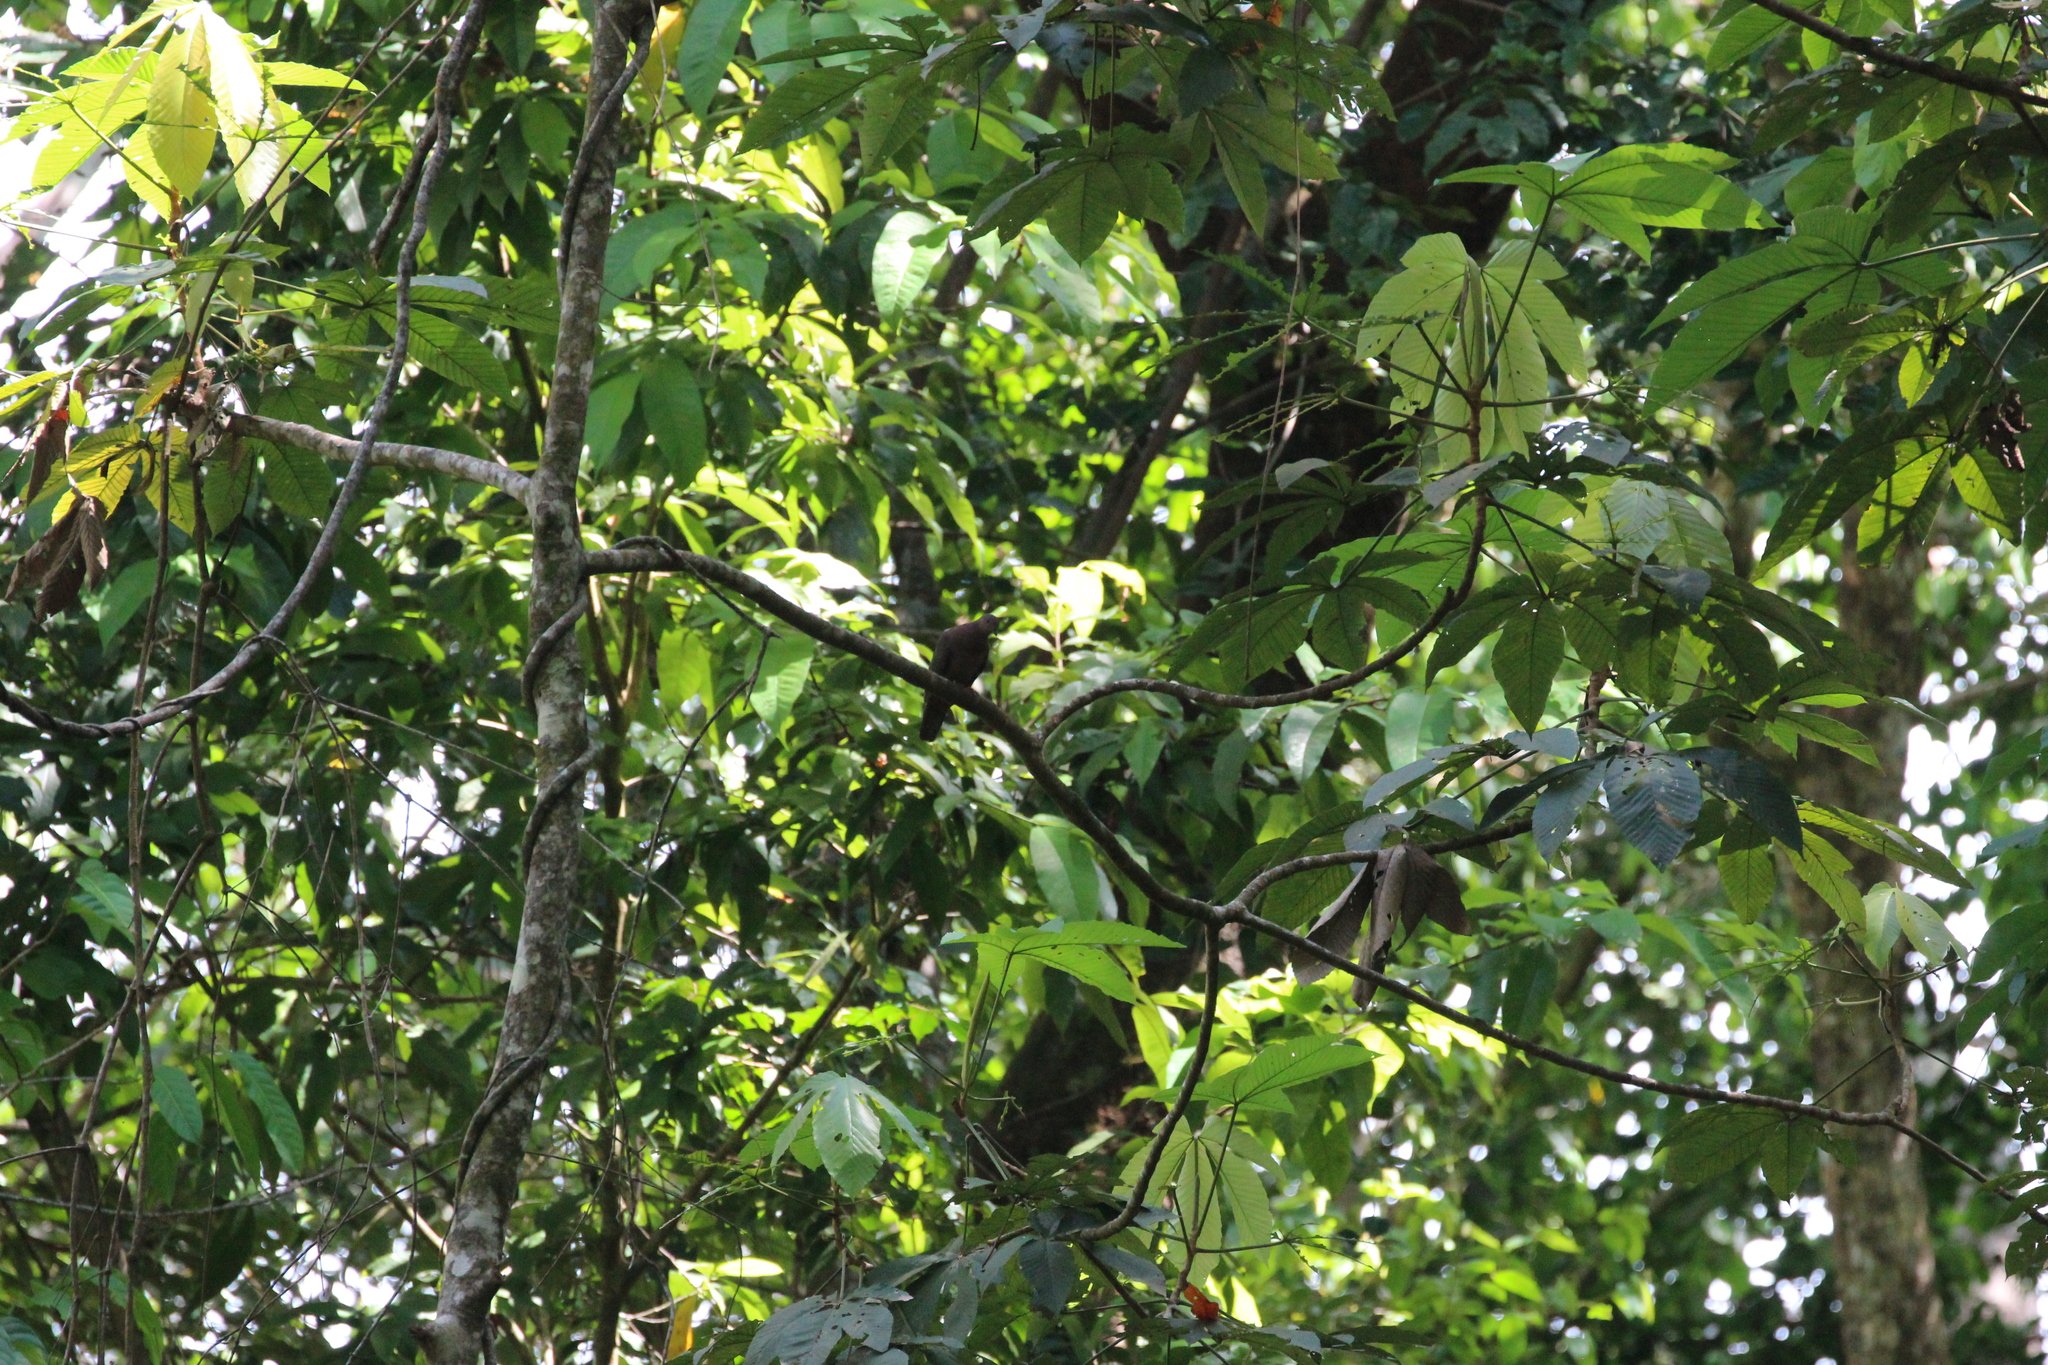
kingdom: Animalia
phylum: Chordata
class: Aves
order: Columbiformes
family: Columbidae
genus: Patagioenas
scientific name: Patagioenas nigrirostris
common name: Short-billed pigeon
